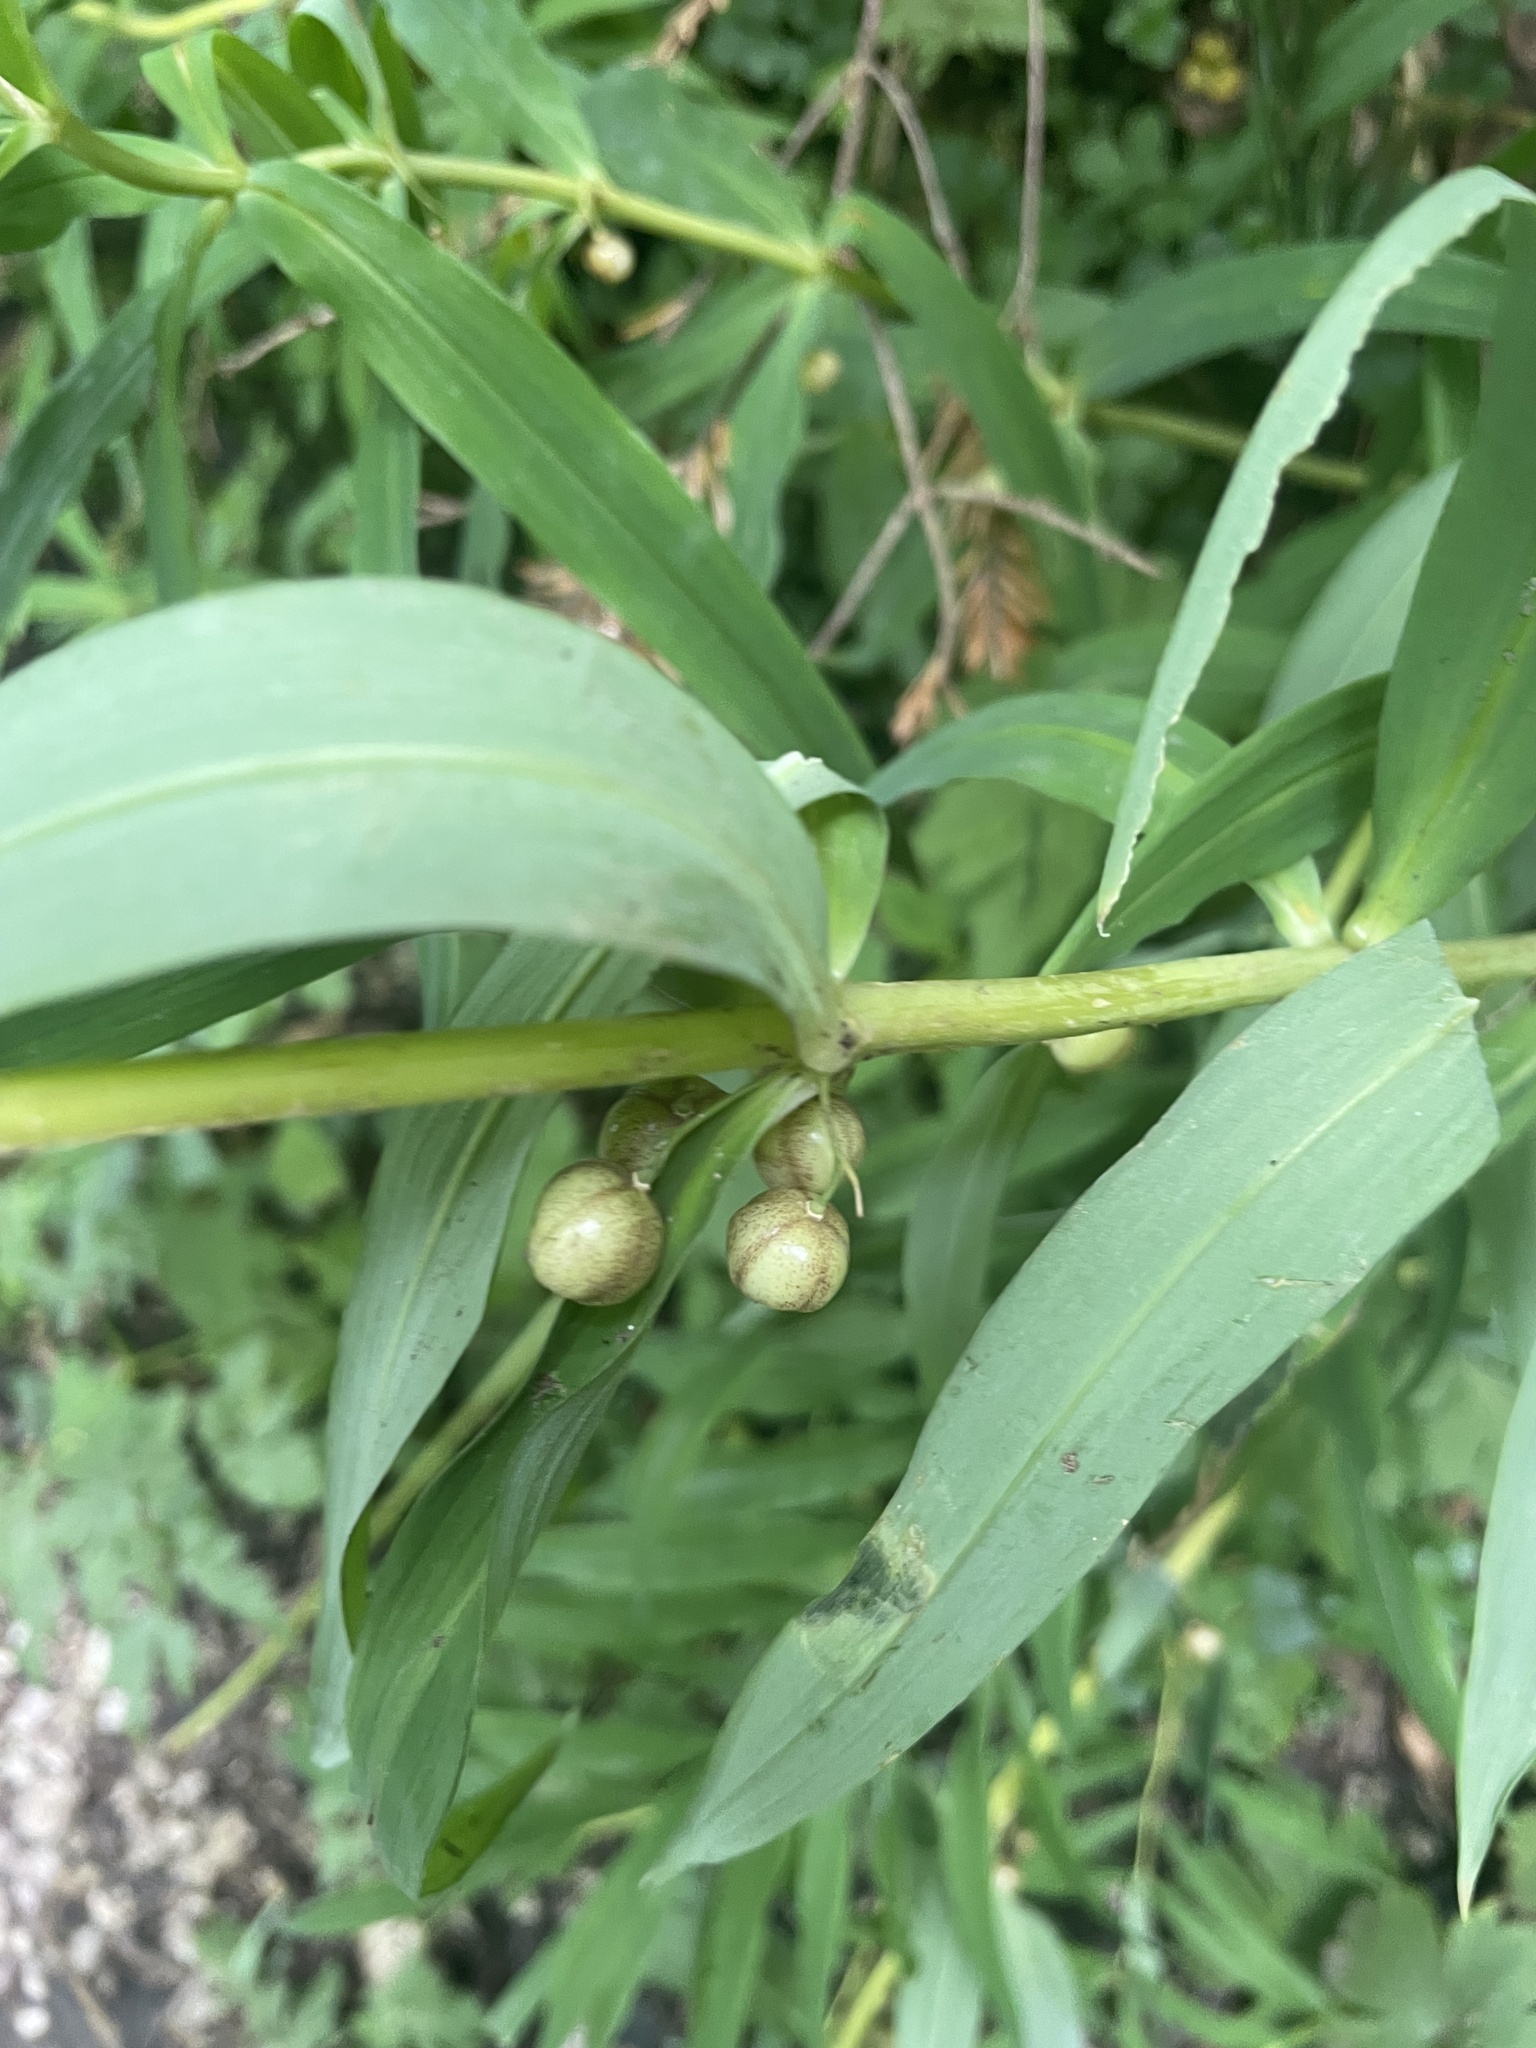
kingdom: Plantae
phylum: Tracheophyta
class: Liliopsida
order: Asparagales
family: Asparagaceae
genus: Polygonatum
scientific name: Polygonatum verticillatum
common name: Whorled solomon's-seal
